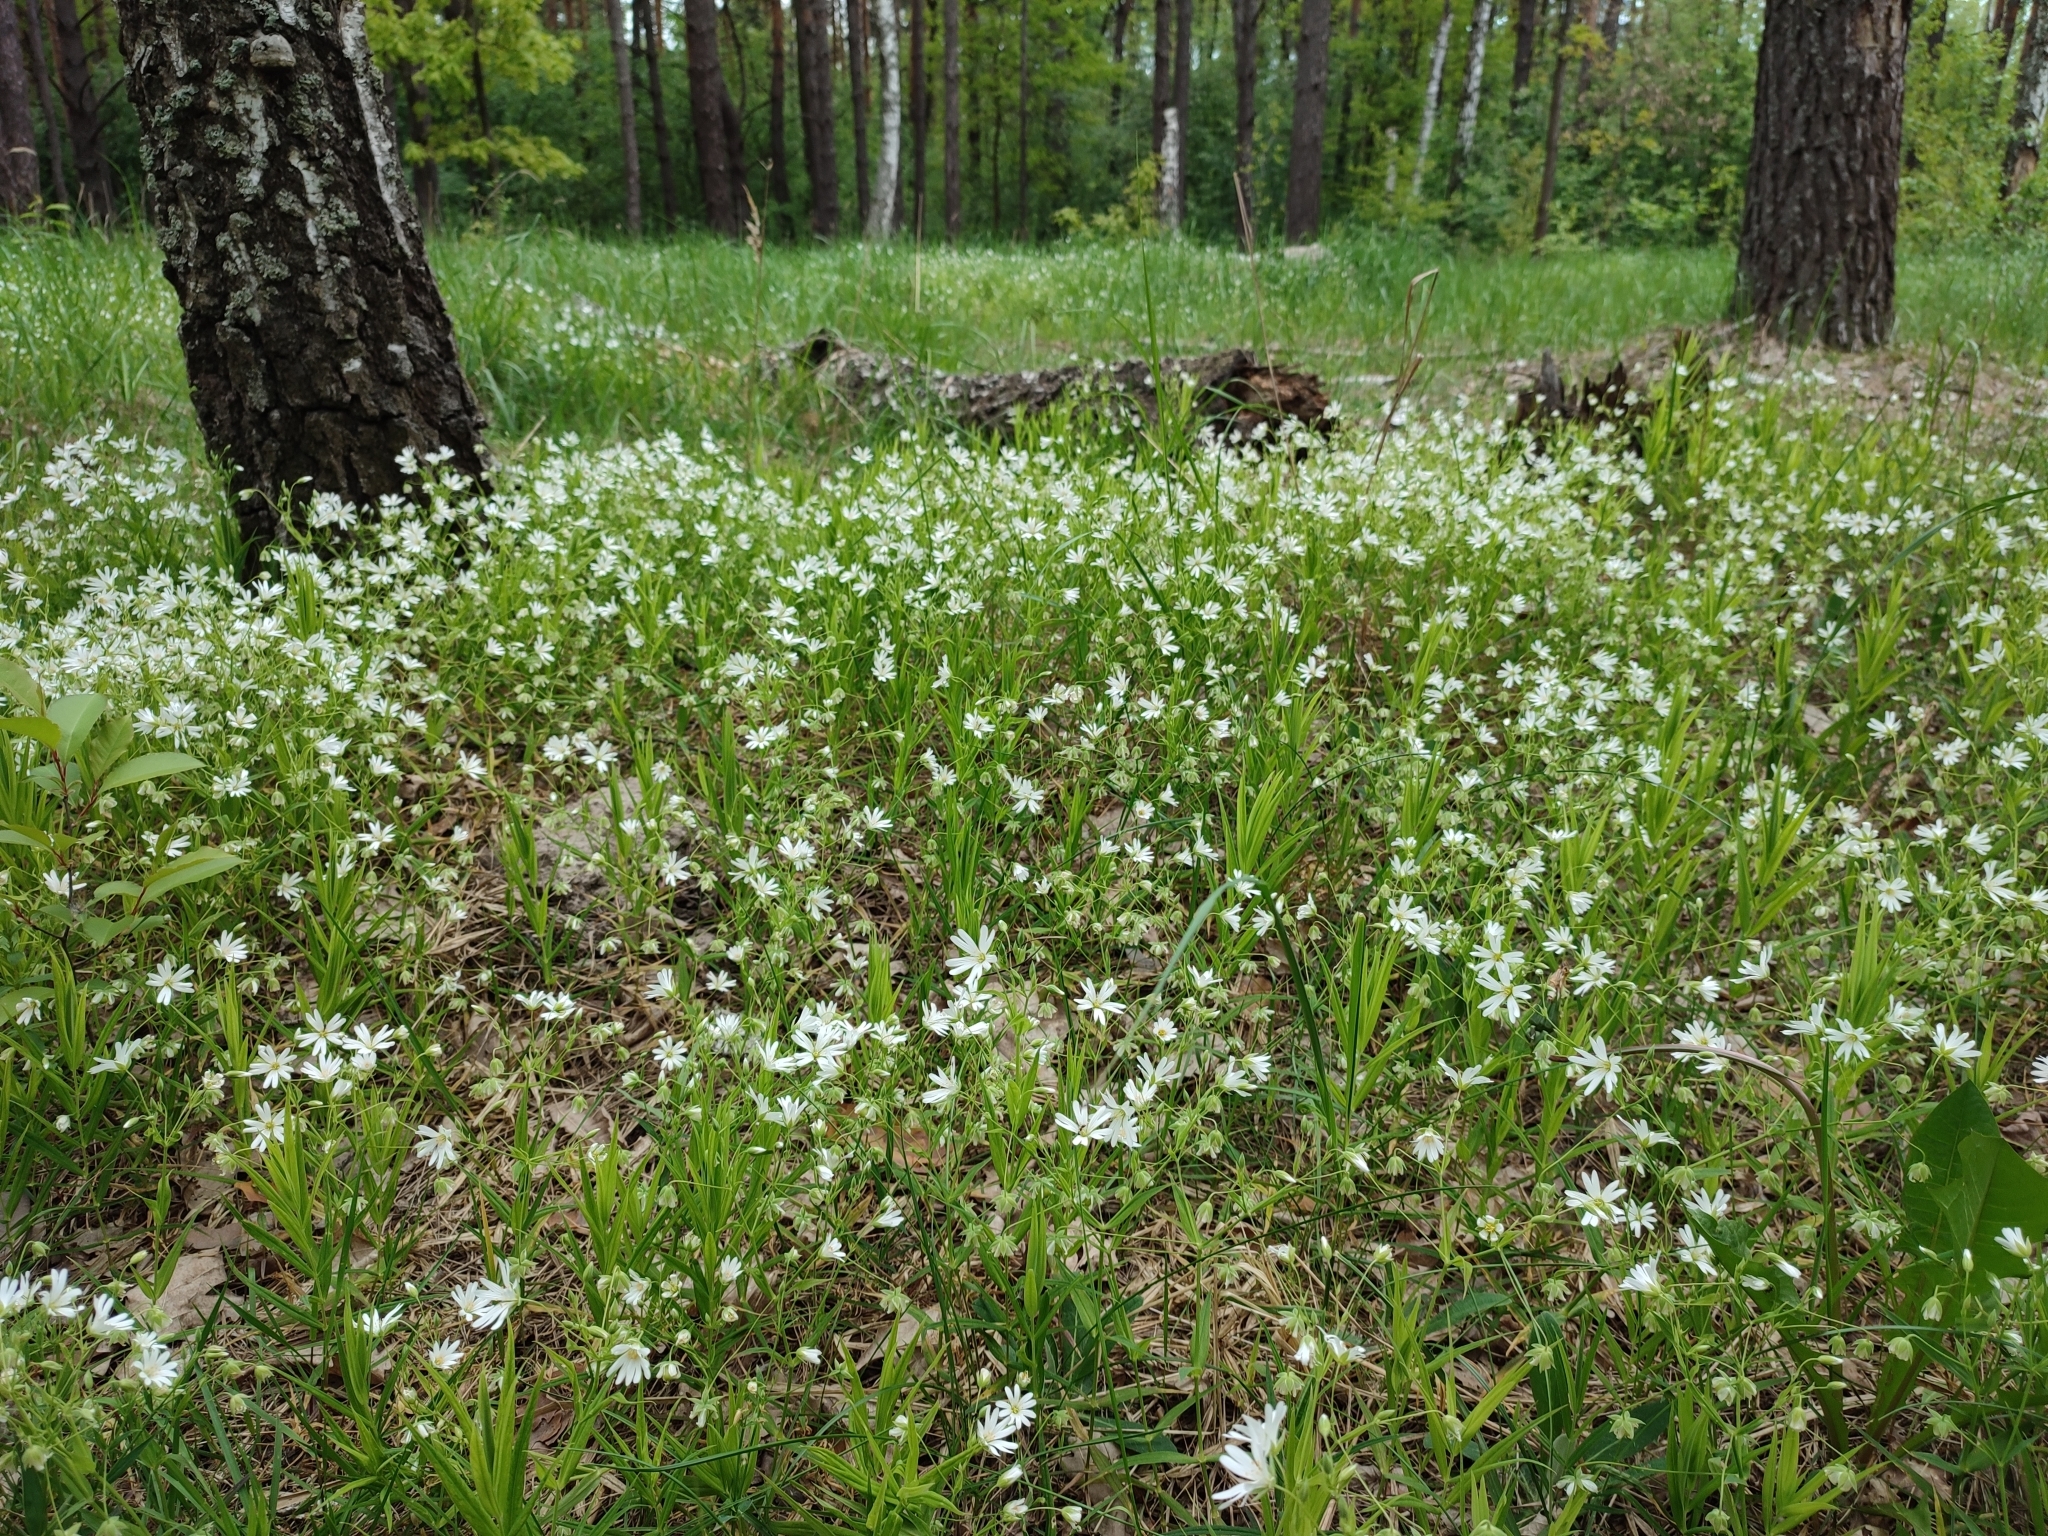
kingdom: Plantae
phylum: Tracheophyta
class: Magnoliopsida
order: Caryophyllales
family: Caryophyllaceae
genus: Rabelera
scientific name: Rabelera holostea
